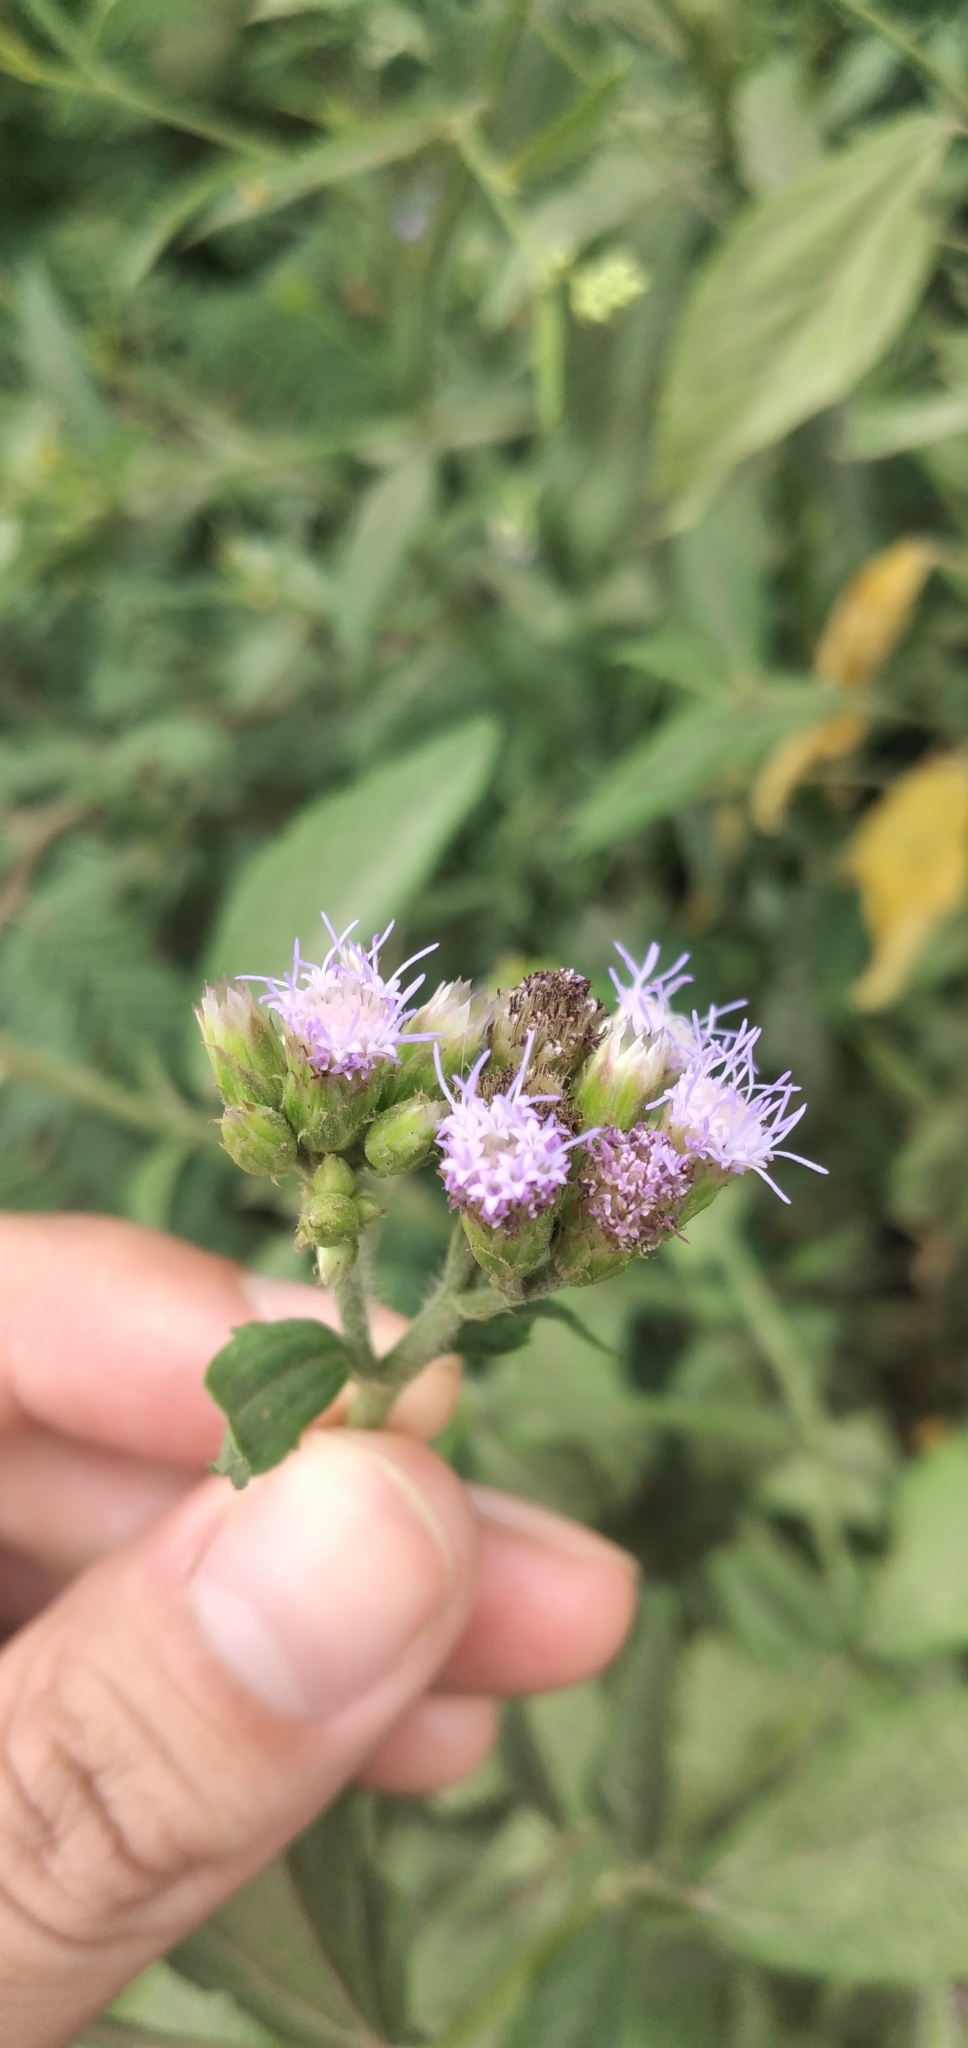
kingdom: Plantae
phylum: Tracheophyta
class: Magnoliopsida
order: Asterales
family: Asteraceae
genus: Praxelis
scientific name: Praxelis clematidea
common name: Praxelis
